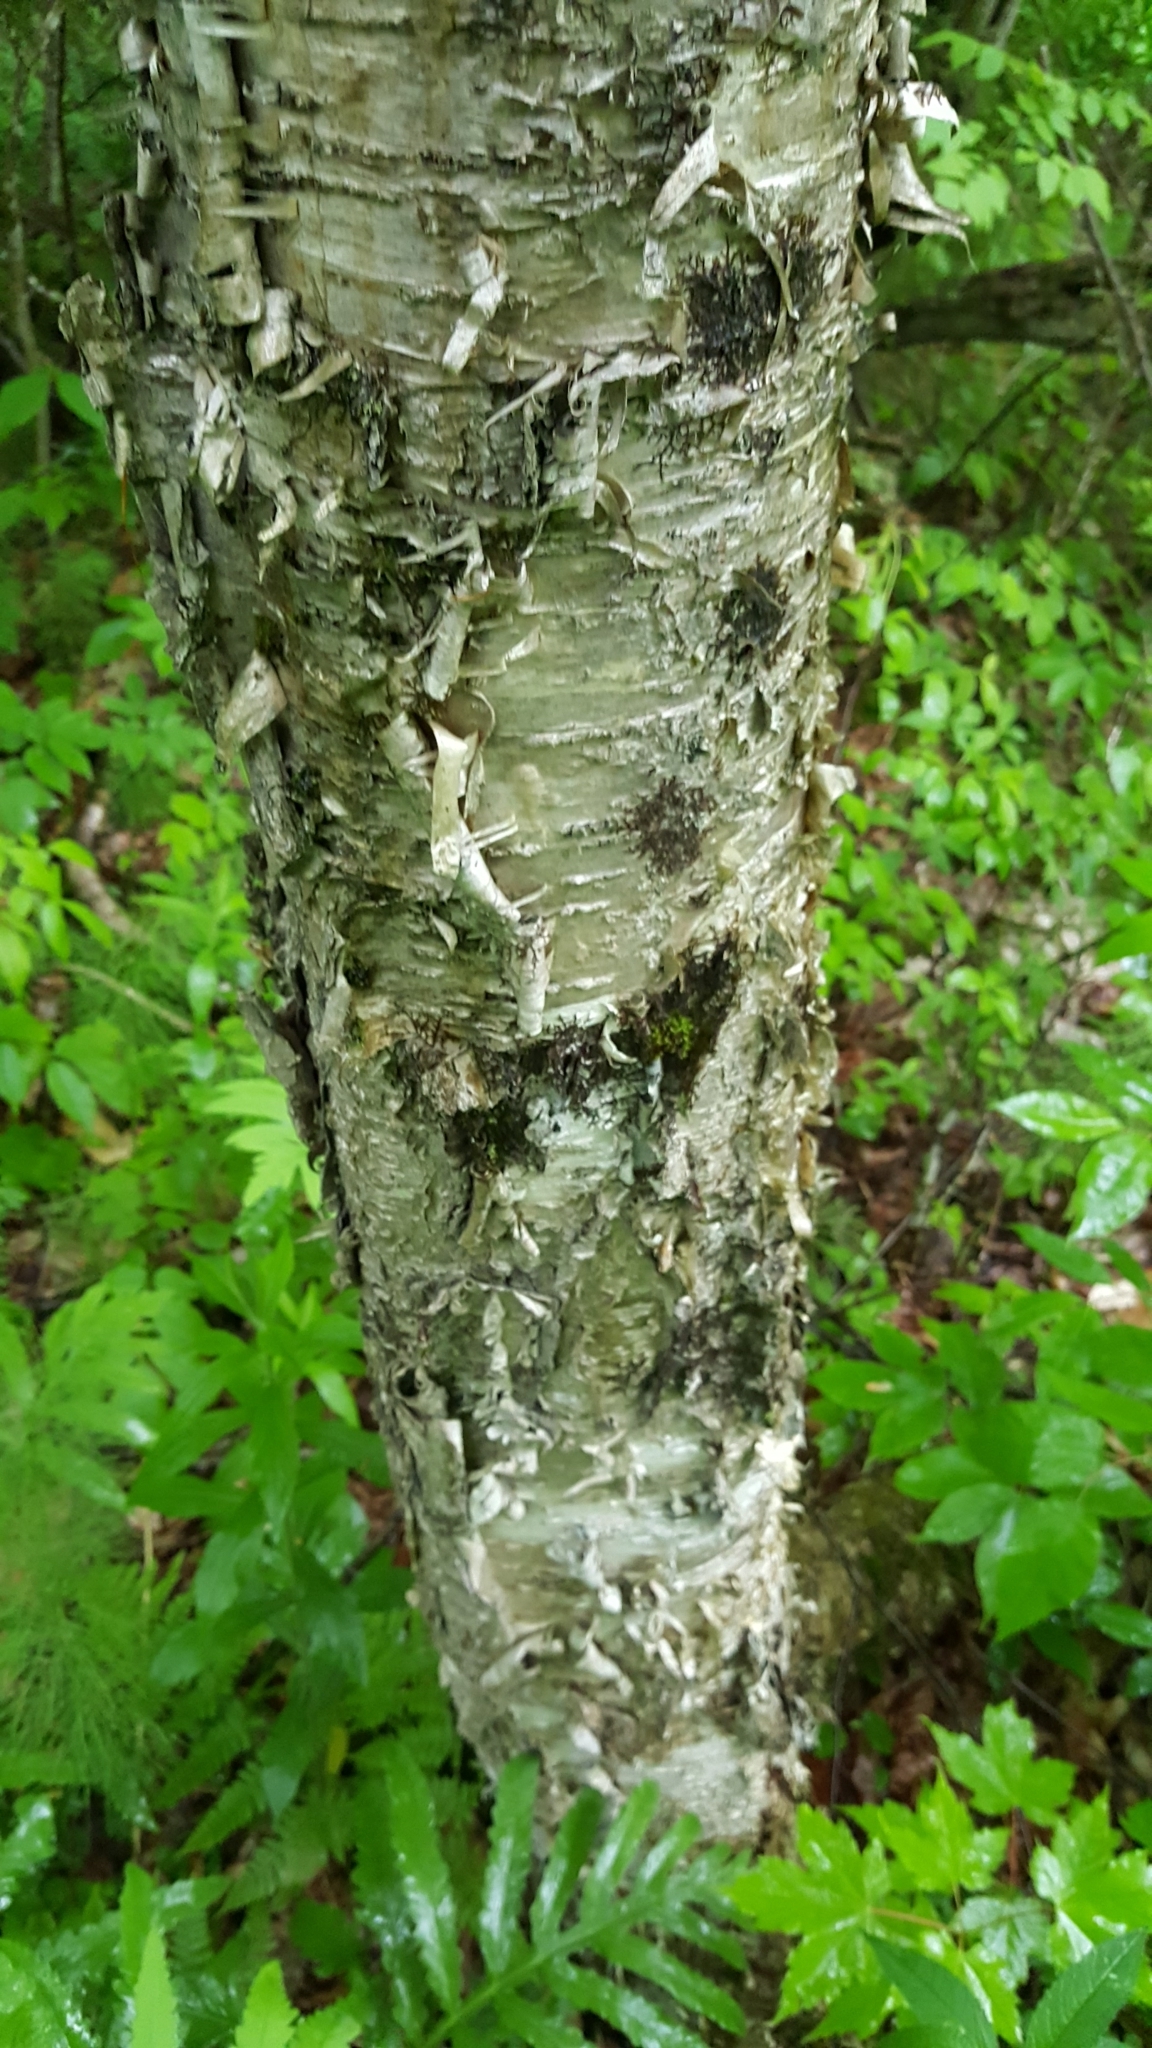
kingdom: Plantae
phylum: Tracheophyta
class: Magnoliopsida
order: Fagales
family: Betulaceae
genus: Betula
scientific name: Betula alleghaniensis
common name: Yellow birch
